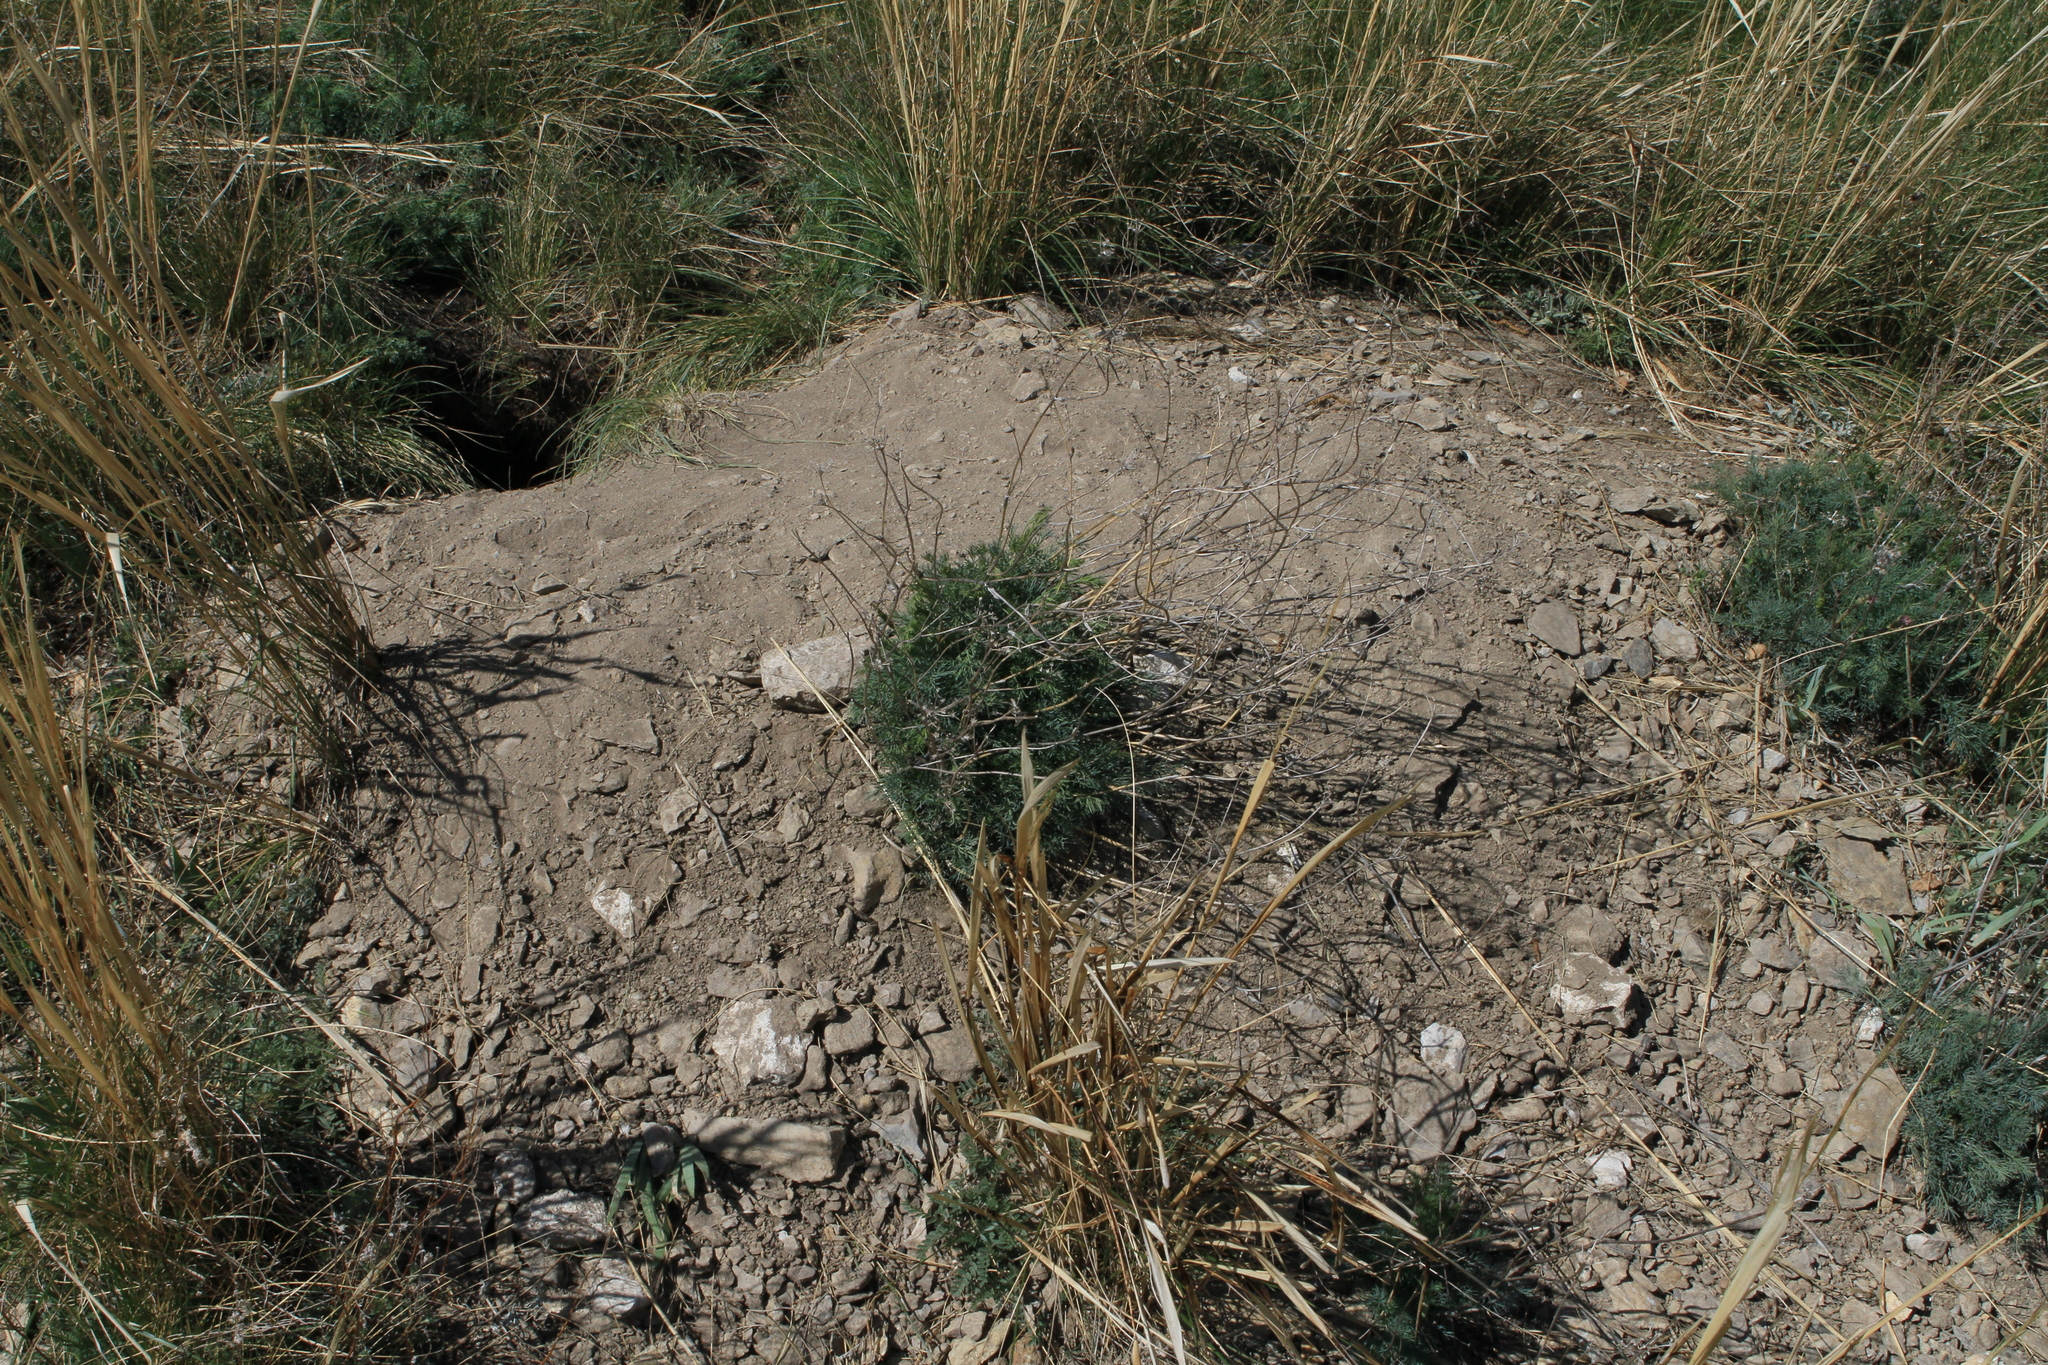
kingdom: Animalia
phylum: Chordata
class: Mammalia
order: Rodentia
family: Sciuridae
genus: Marmota
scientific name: Marmota kastschenkoi
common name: Forest steppe marmot
